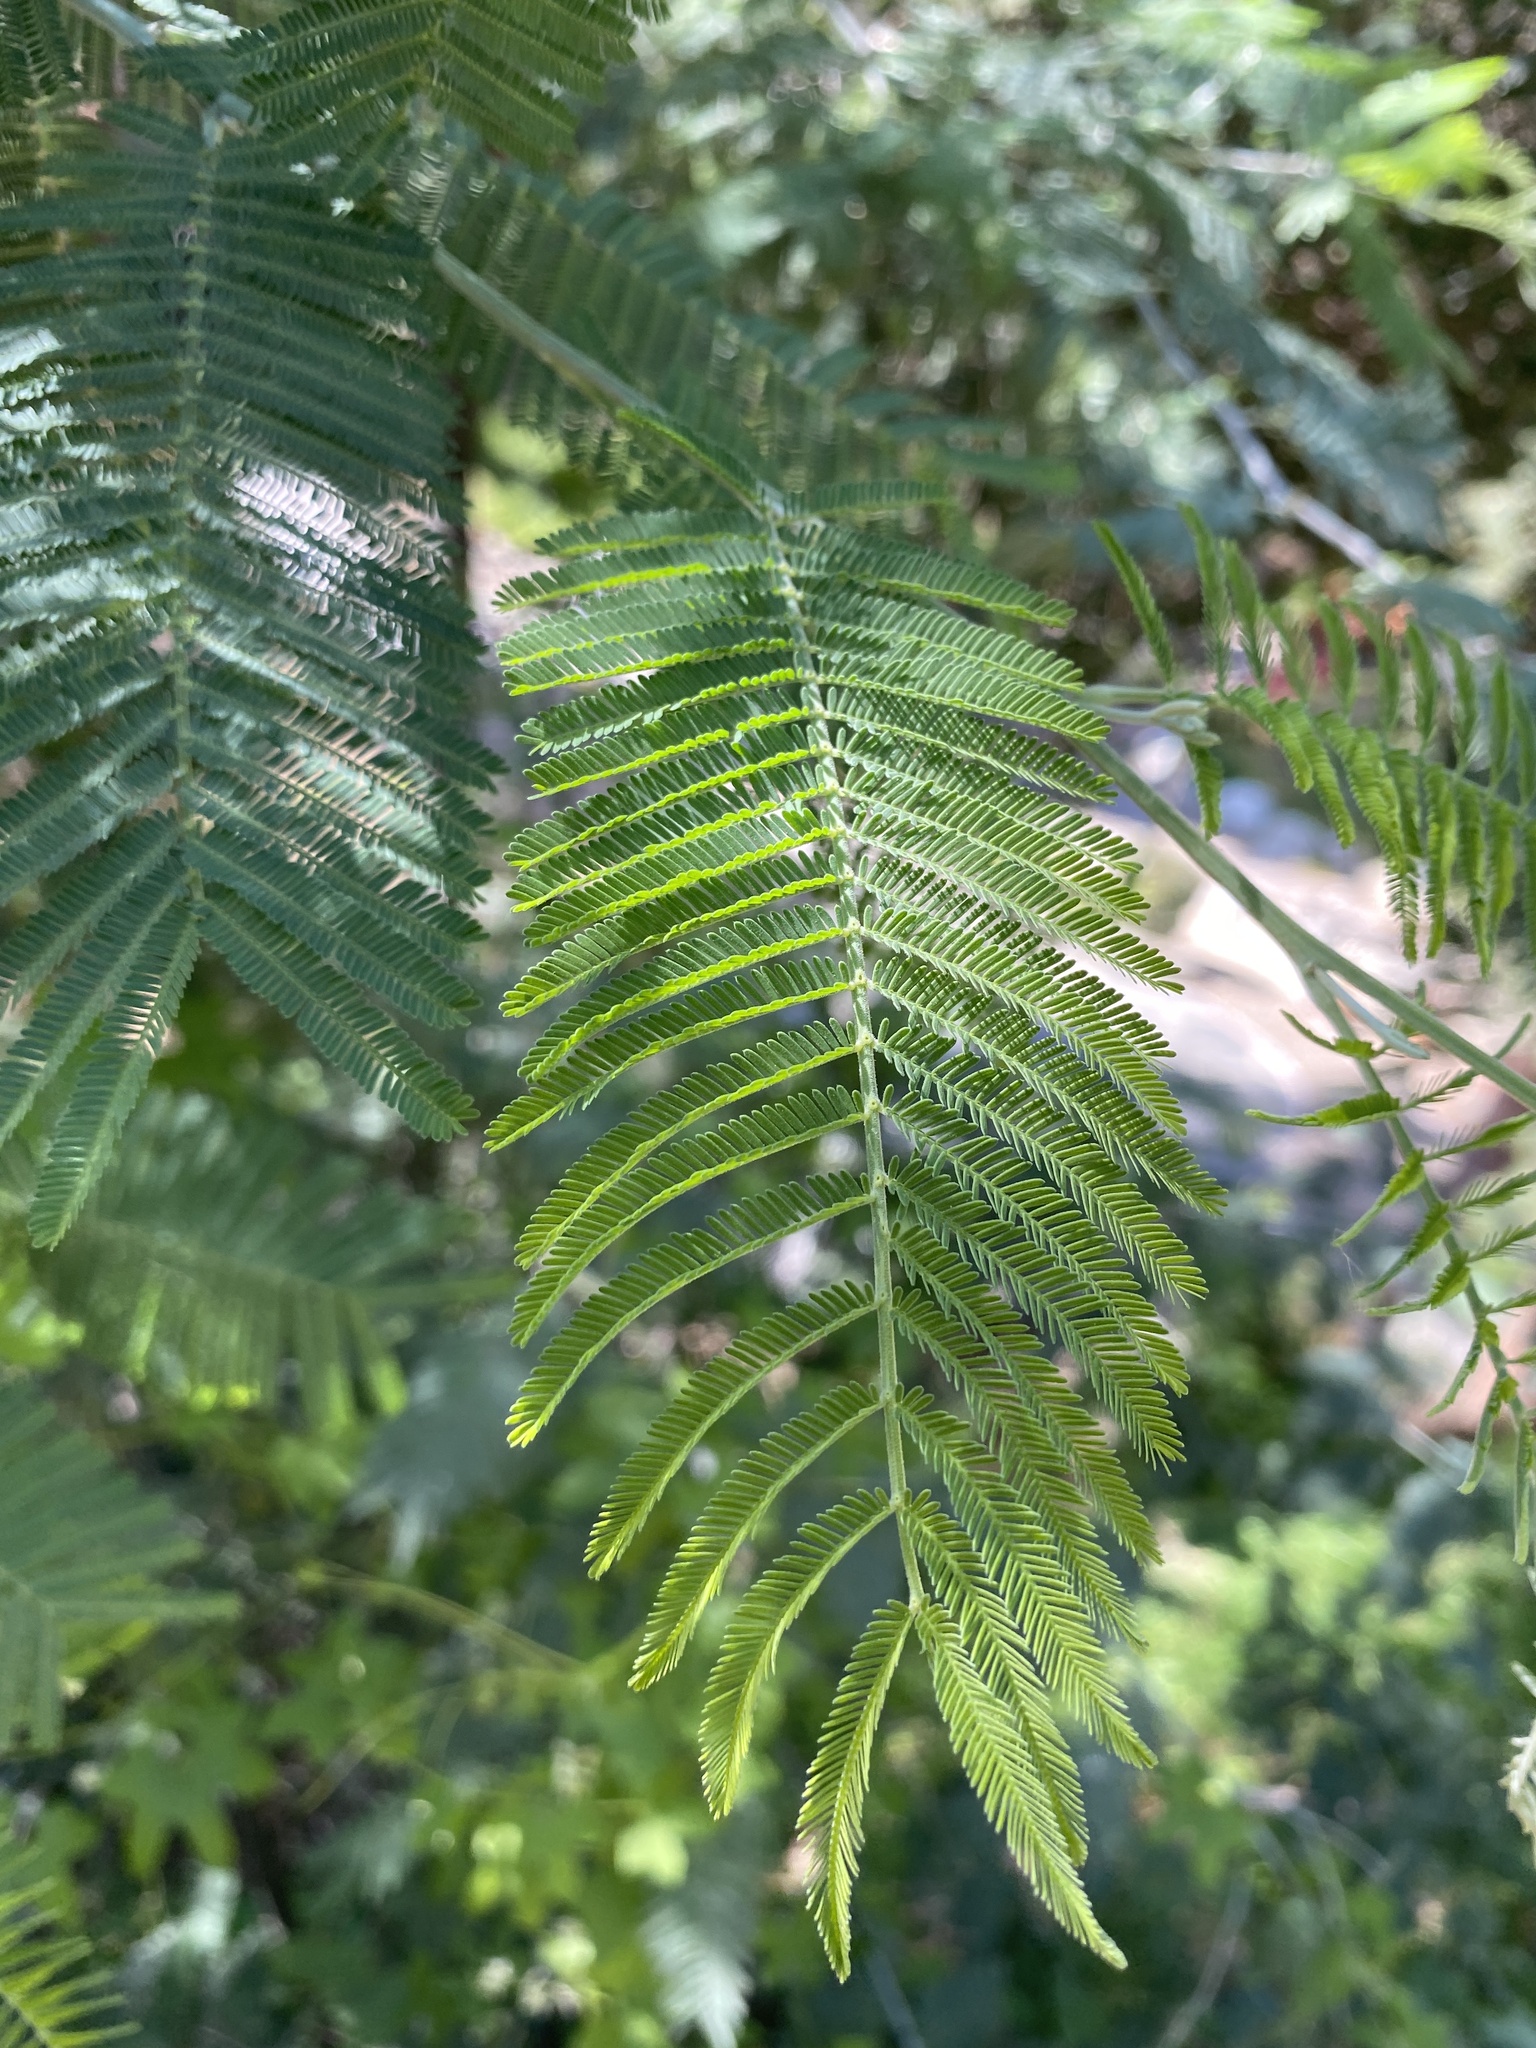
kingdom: Plantae
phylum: Tracheophyta
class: Magnoliopsida
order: Fabales
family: Fabaceae
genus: Acacia
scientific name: Acacia dealbata
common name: Silver wattle
